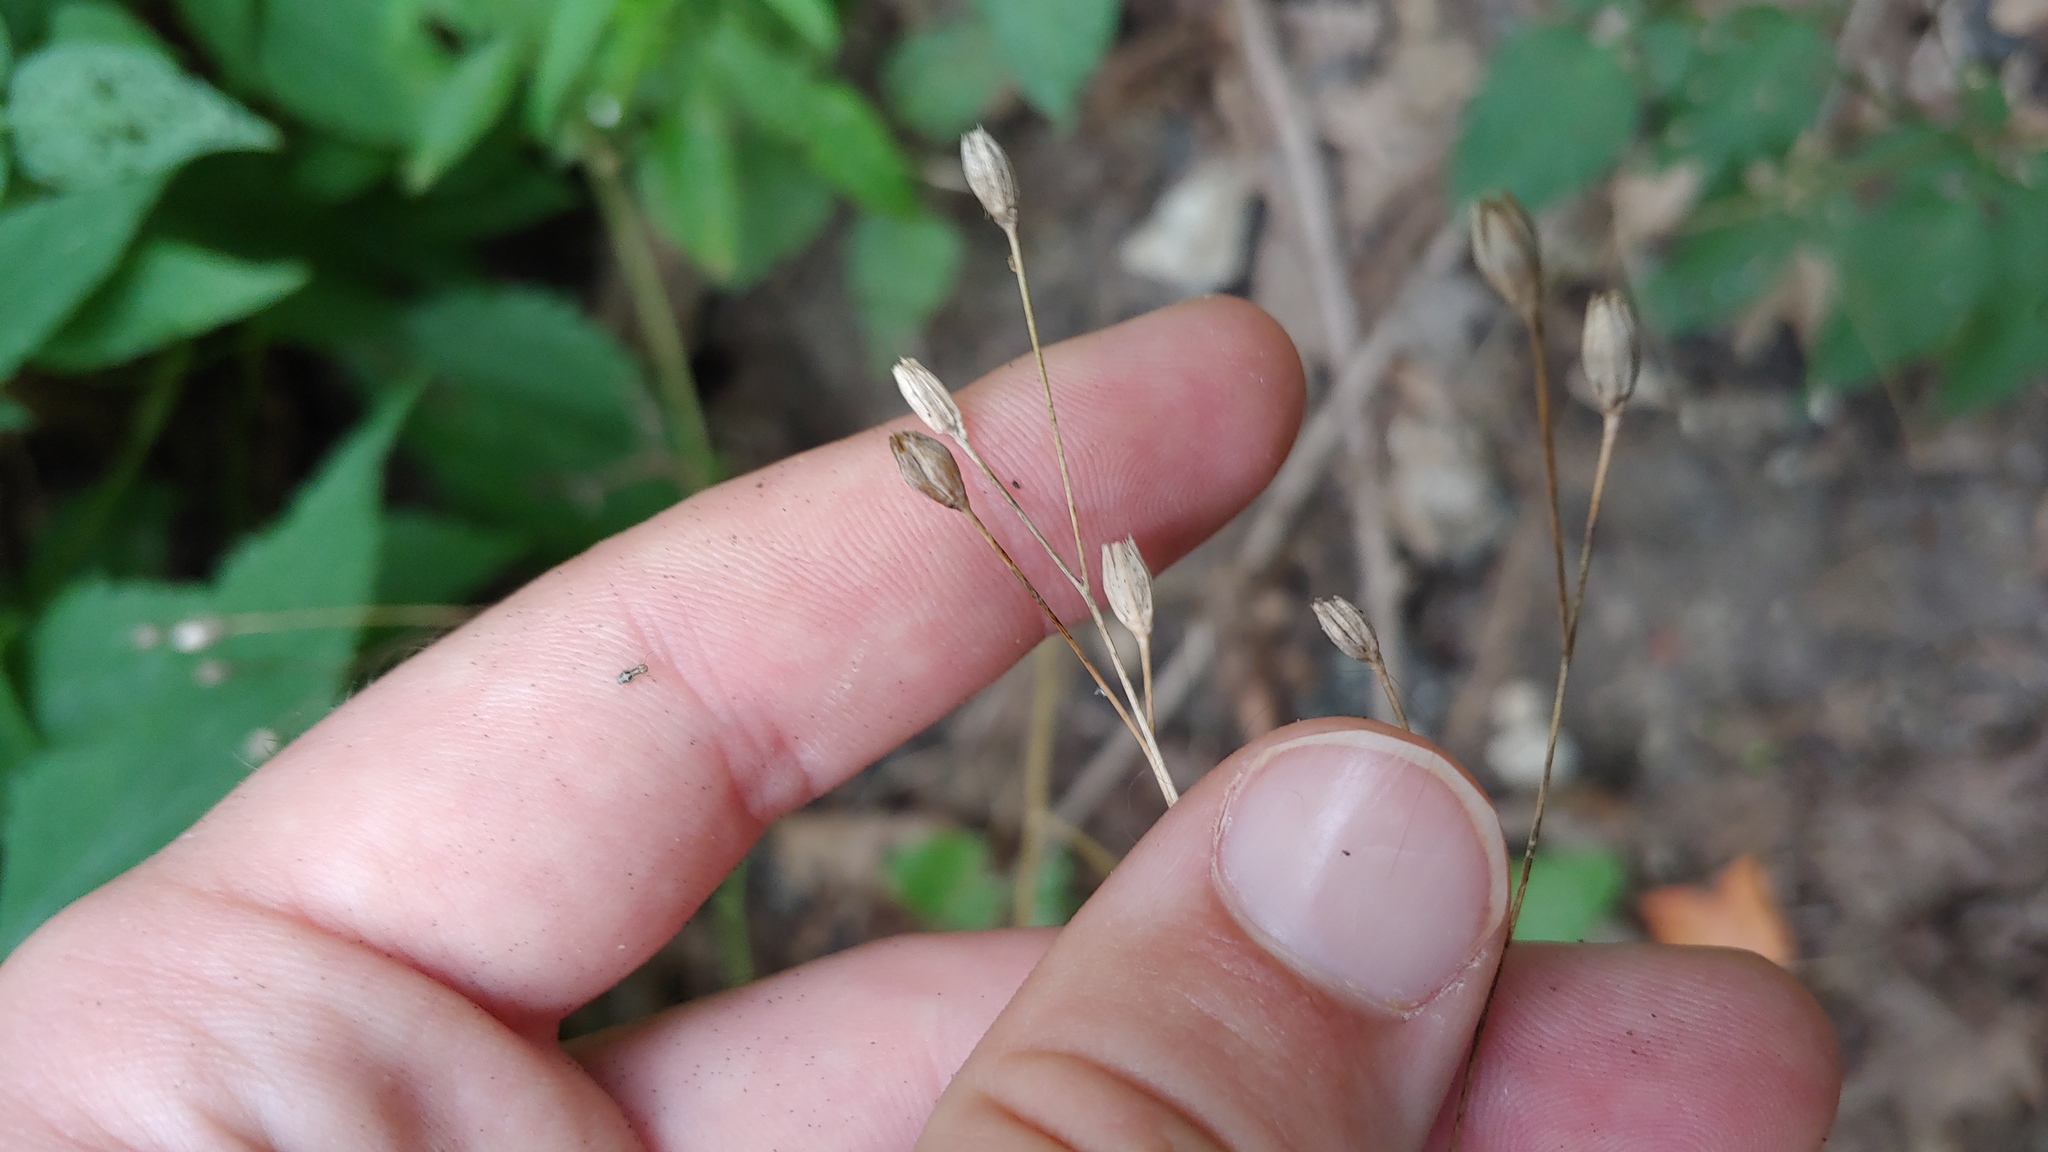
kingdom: Plantae
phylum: Tracheophyta
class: Magnoliopsida
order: Asterales
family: Asteraceae
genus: Lapsana
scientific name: Lapsana communis
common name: Nipplewort
